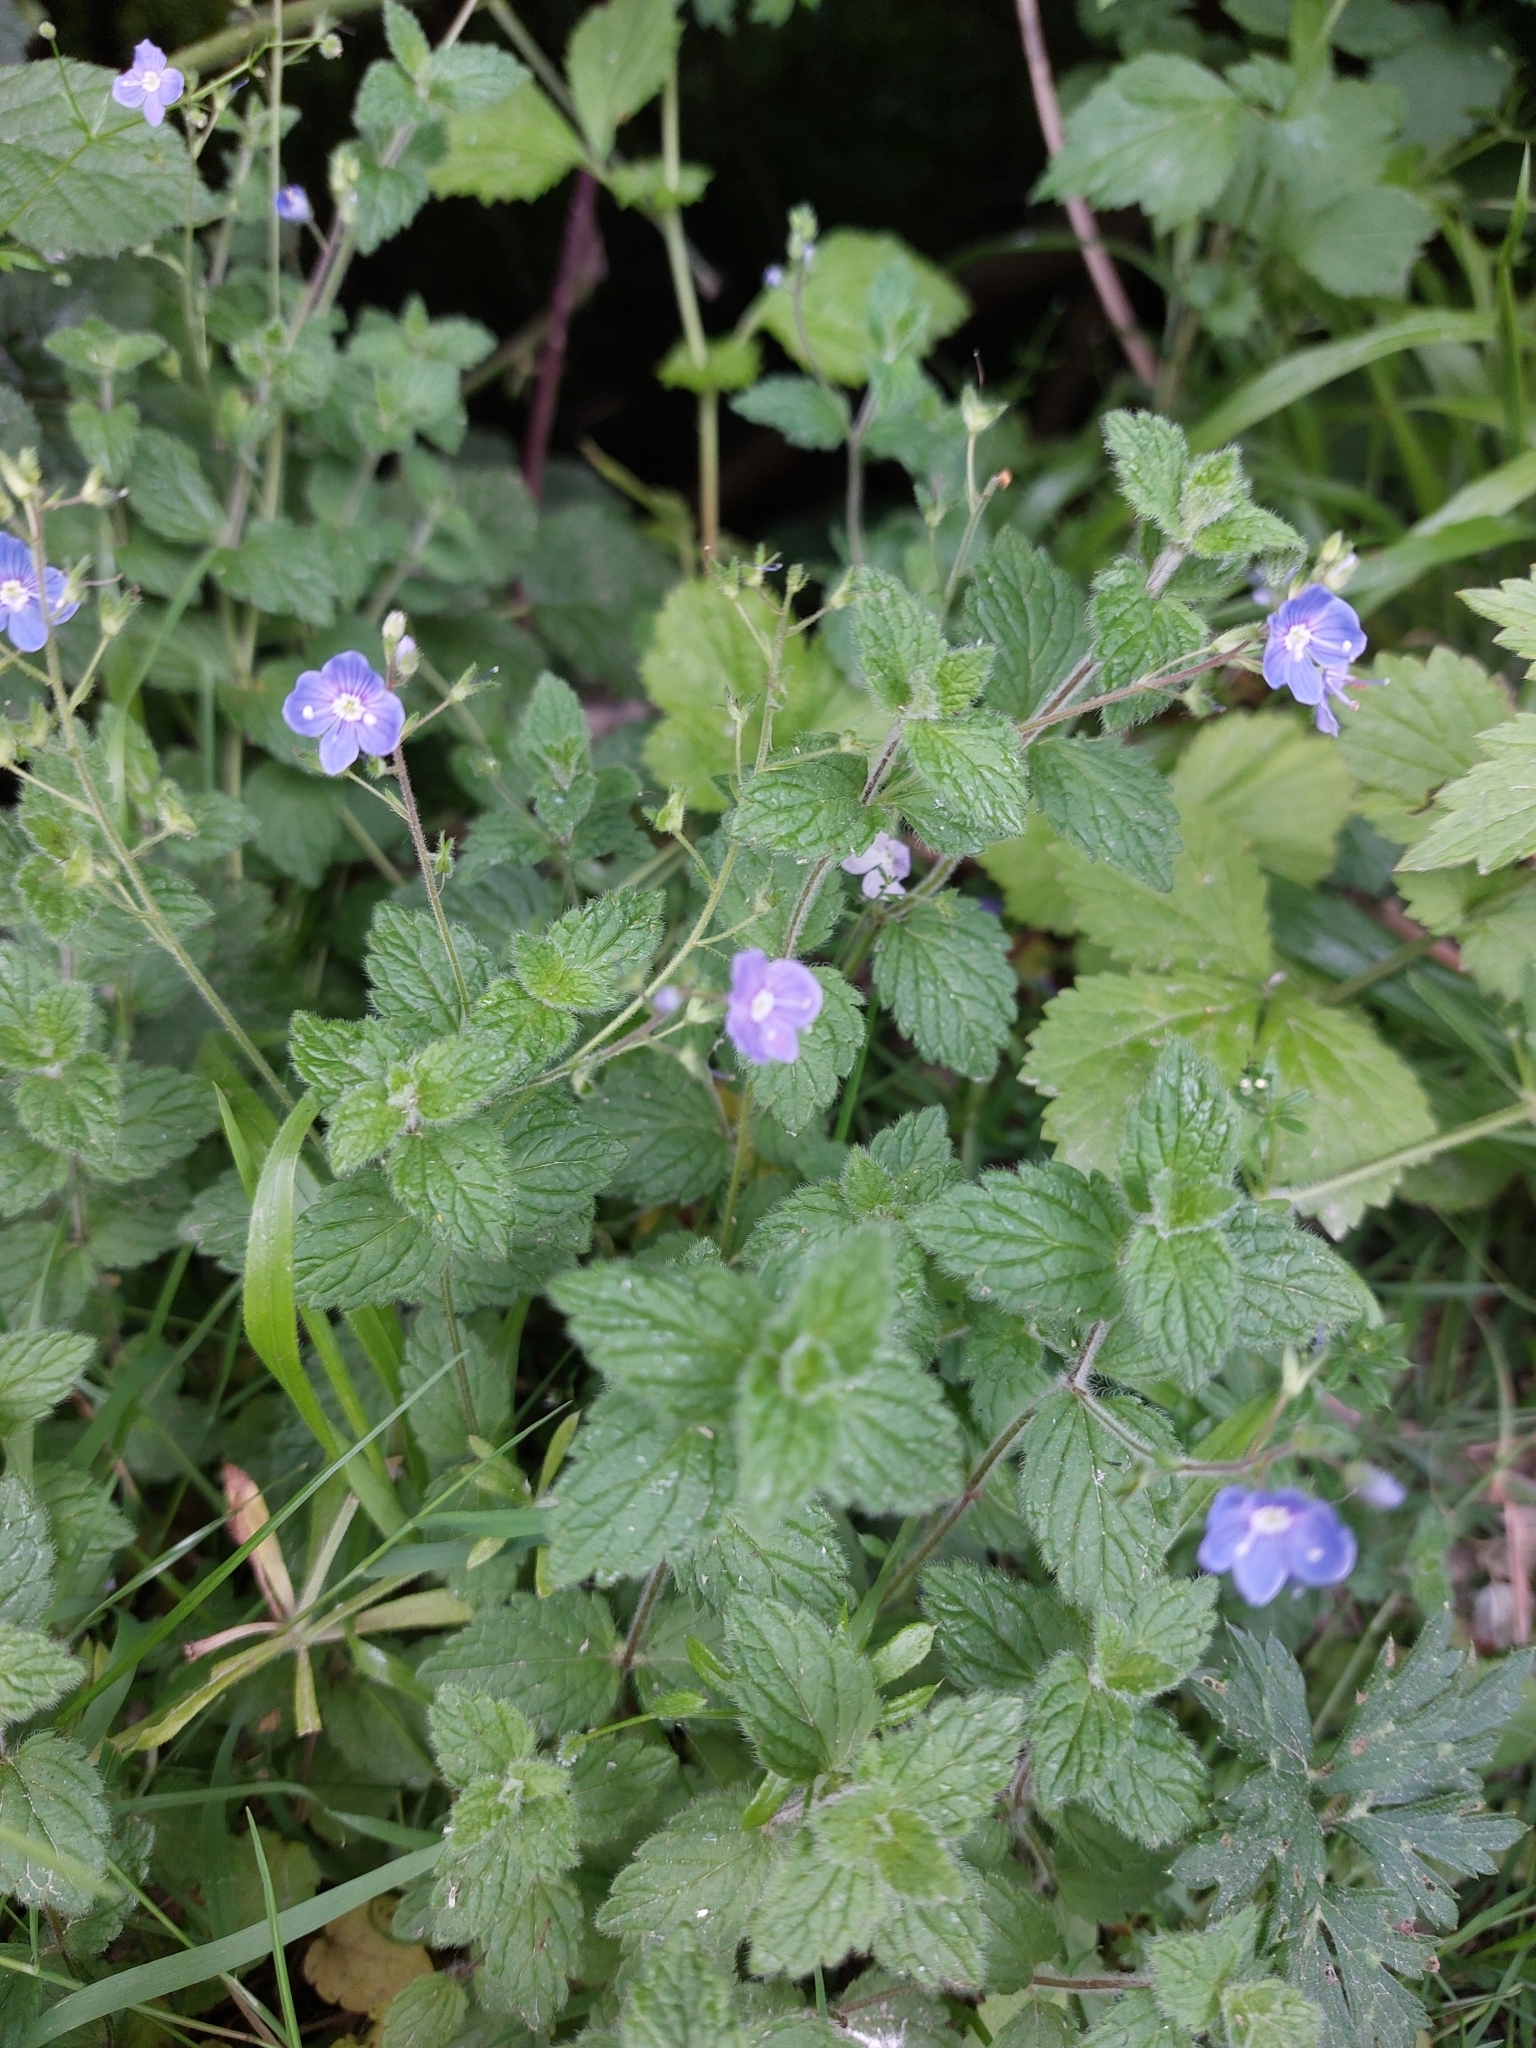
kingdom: Plantae
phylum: Tracheophyta
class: Magnoliopsida
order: Lamiales
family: Plantaginaceae
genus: Veronica
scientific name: Veronica chamaedrys
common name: Germander speedwell
